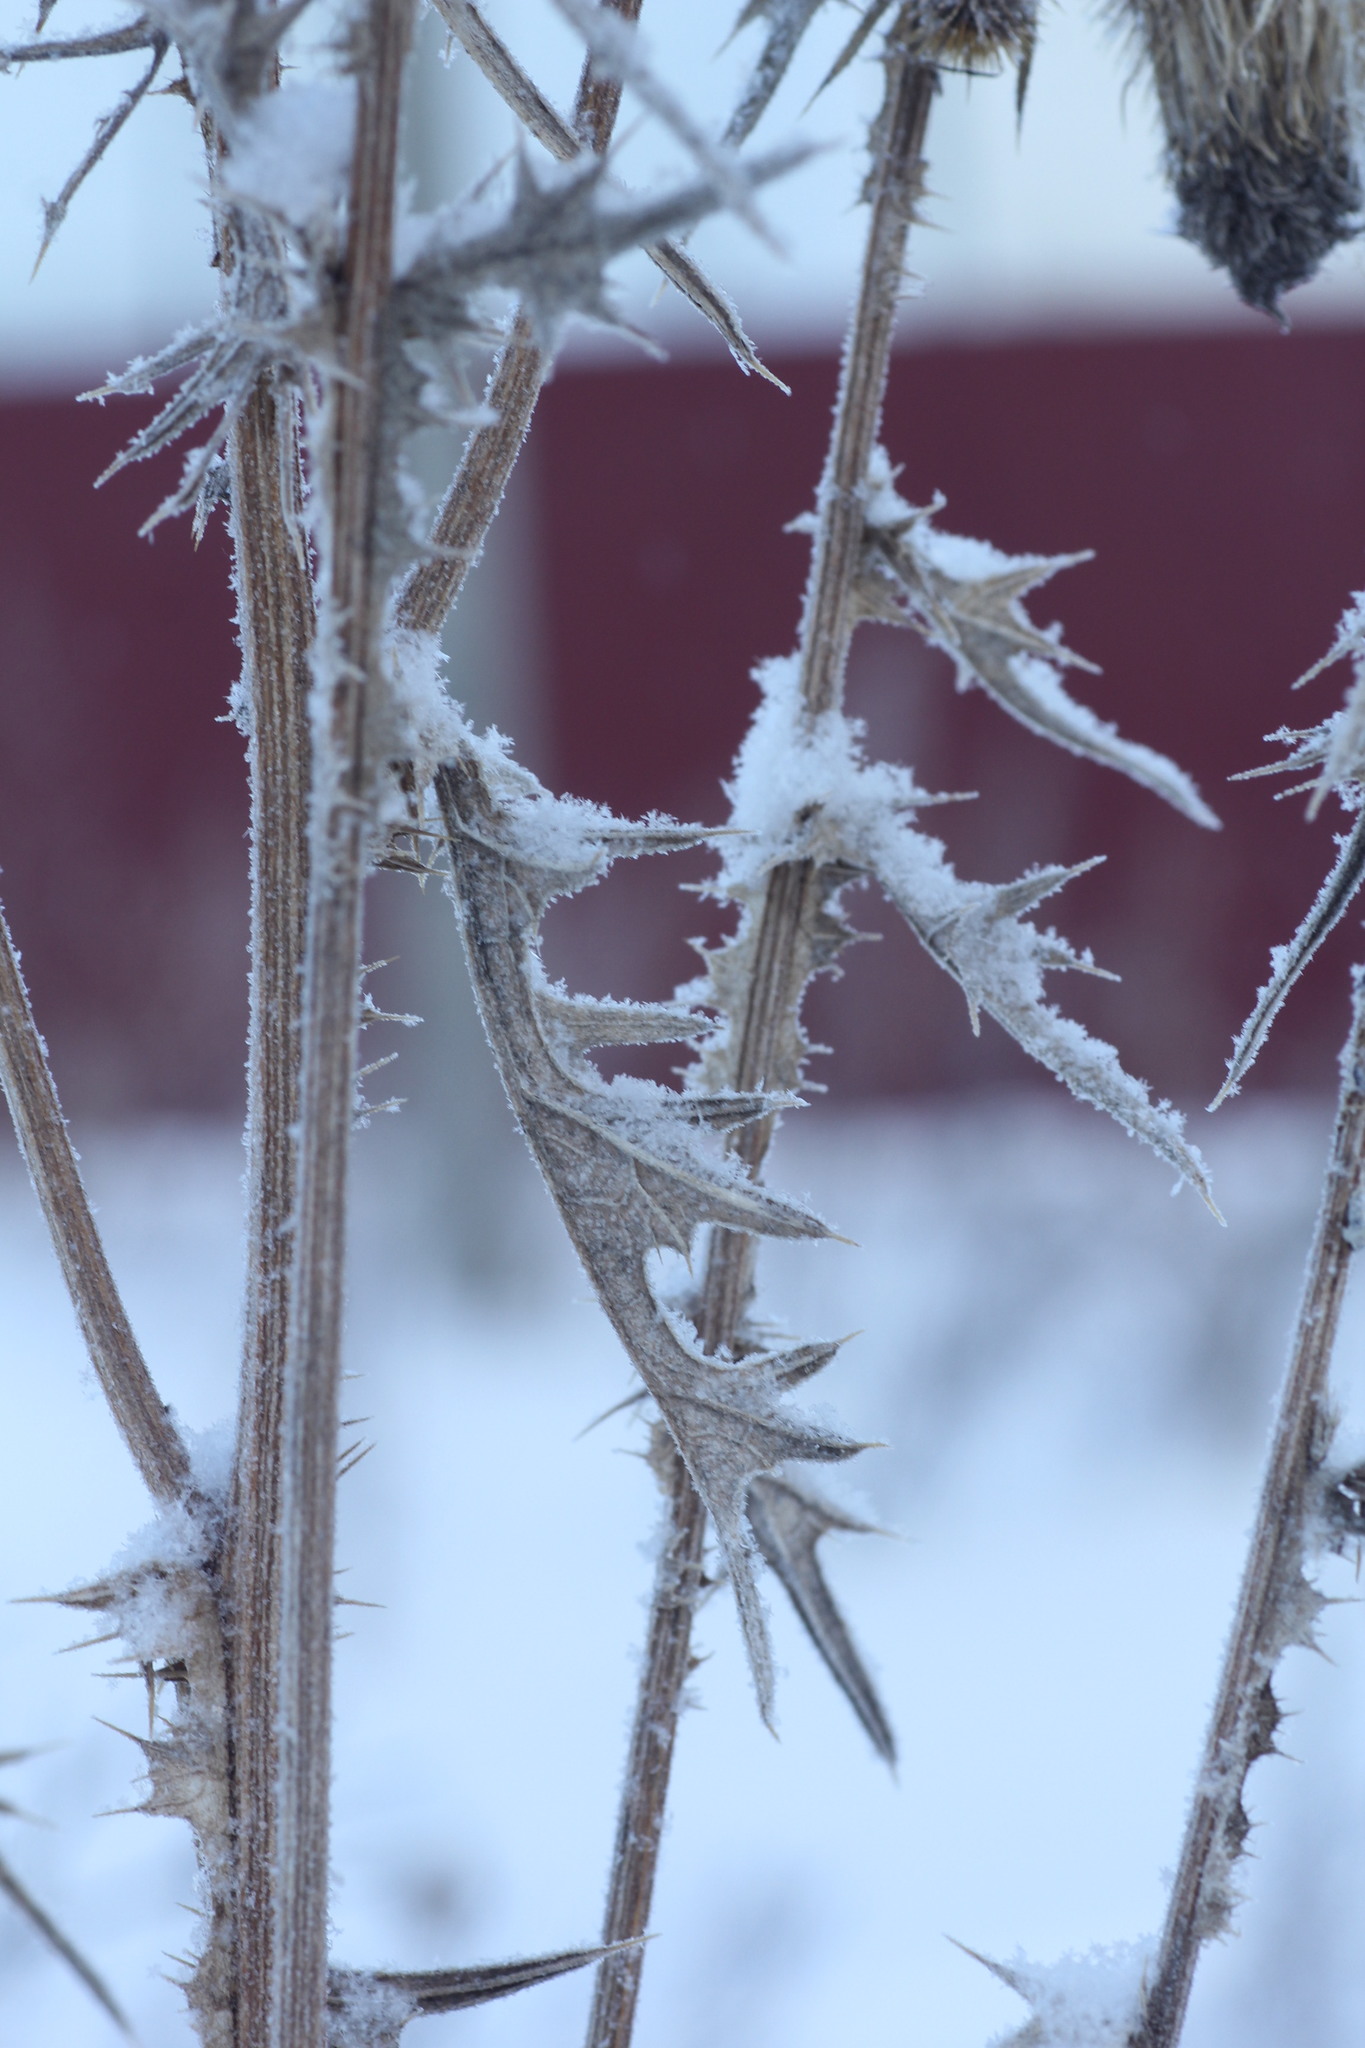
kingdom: Plantae
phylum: Tracheophyta
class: Magnoliopsida
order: Asterales
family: Asteraceae
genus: Cirsium
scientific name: Cirsium vulgare
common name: Bull thistle
